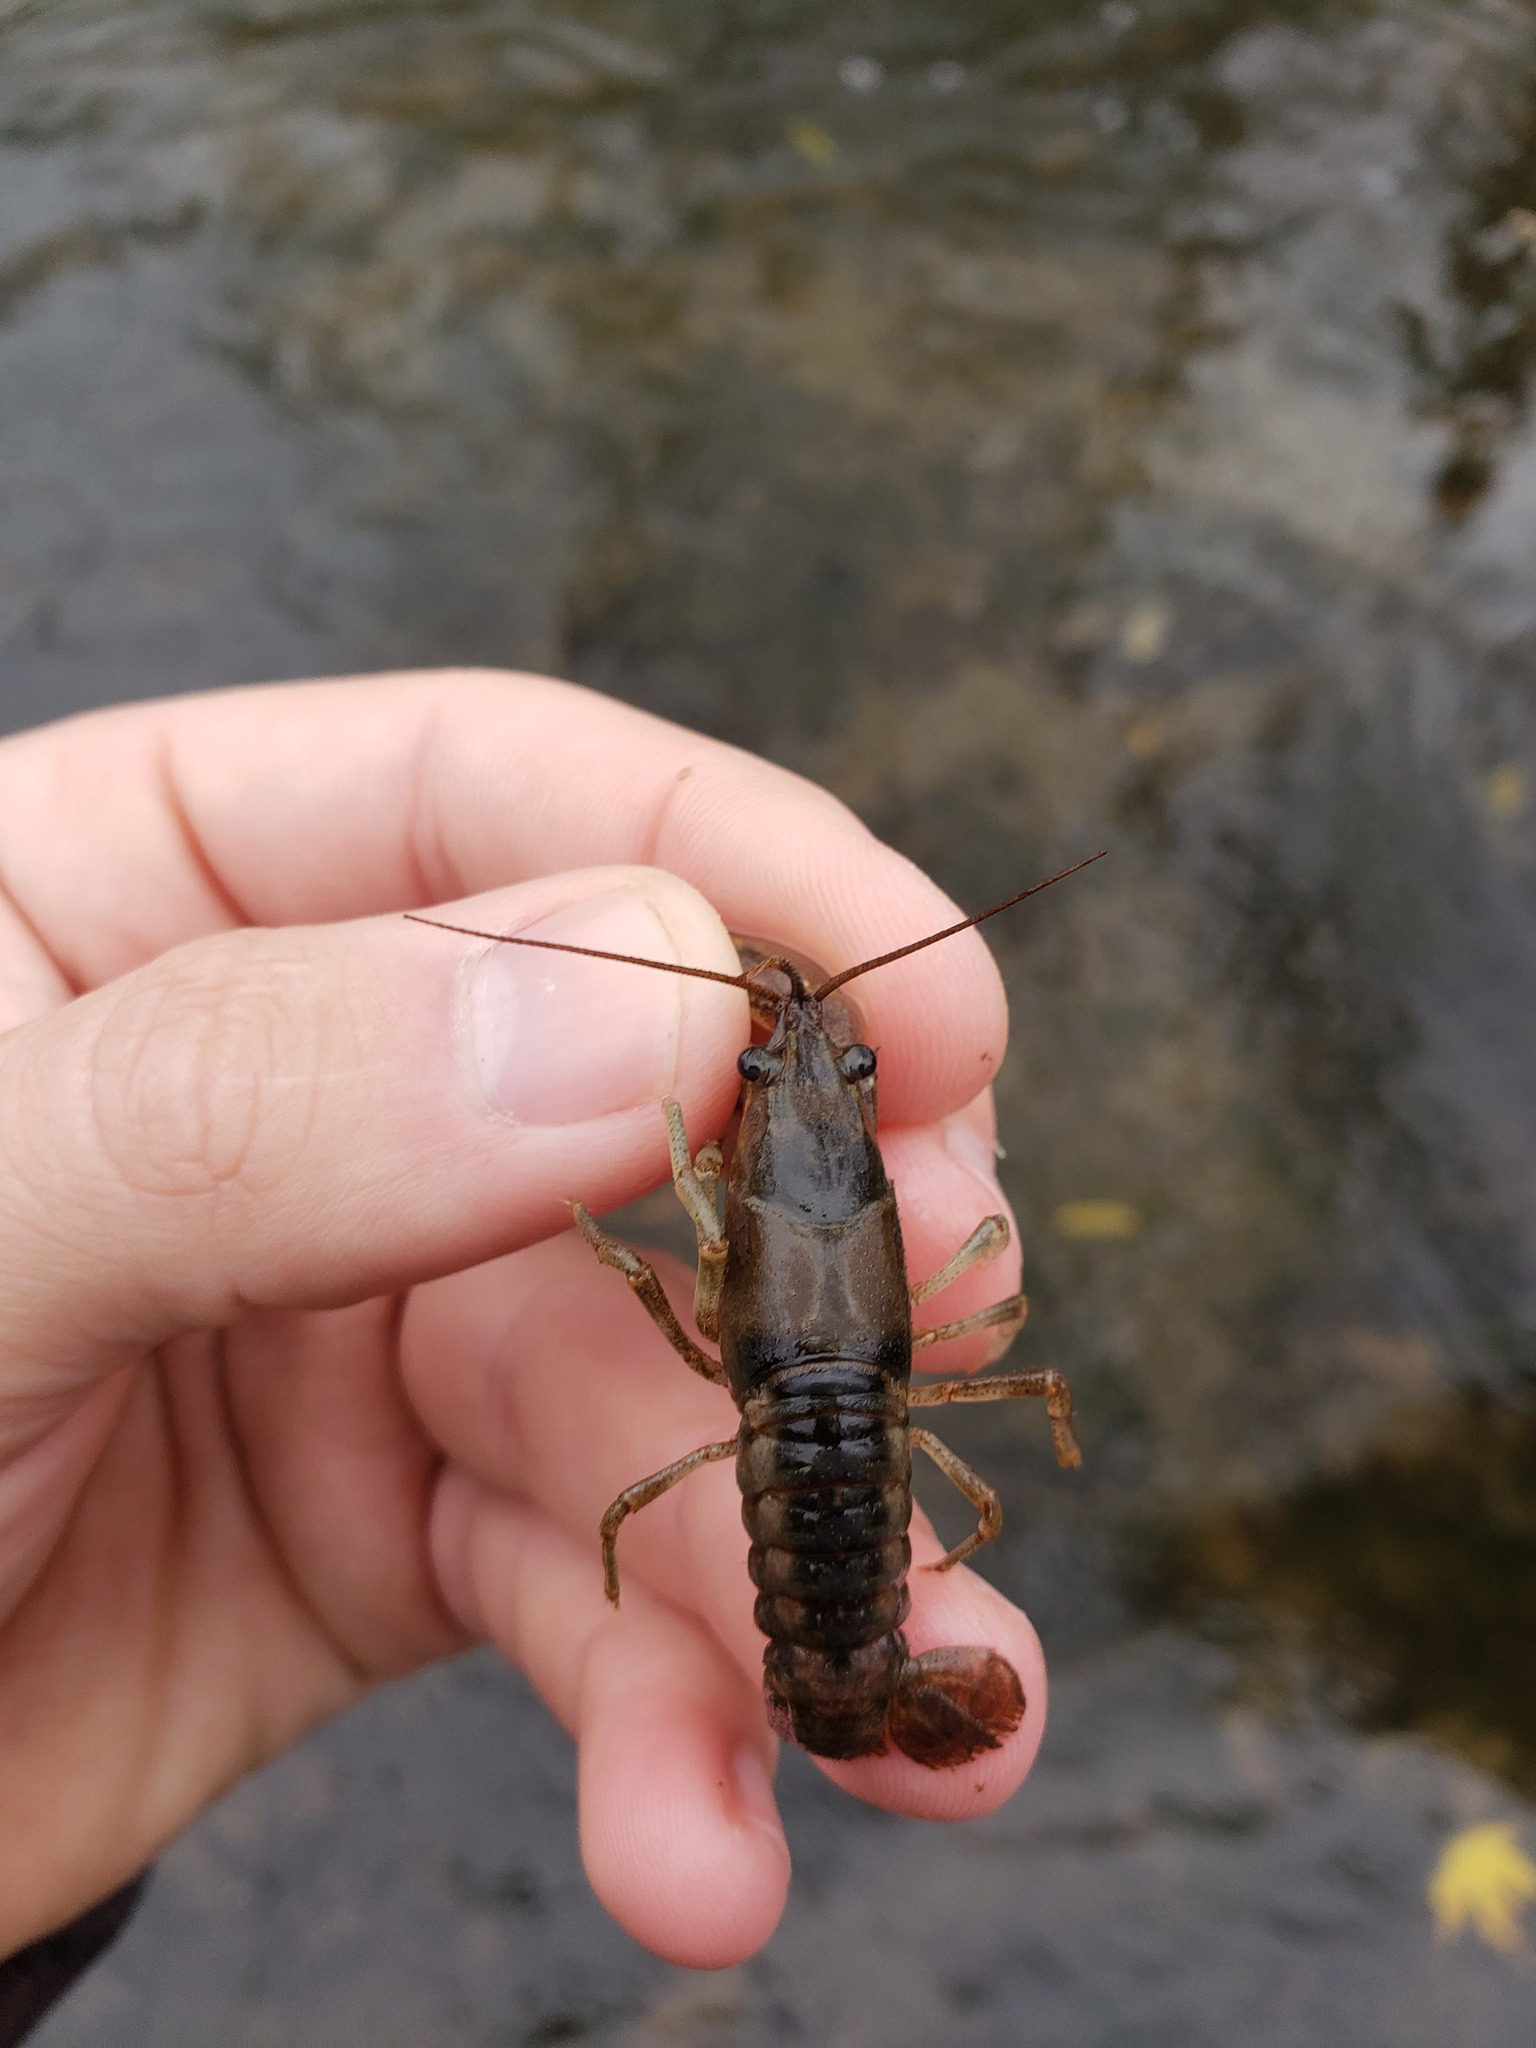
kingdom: Animalia
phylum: Arthropoda
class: Malacostraca
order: Decapoda
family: Cambaridae
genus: Faxonius
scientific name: Faxonius propinquus
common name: Northern clearwater crayfish
